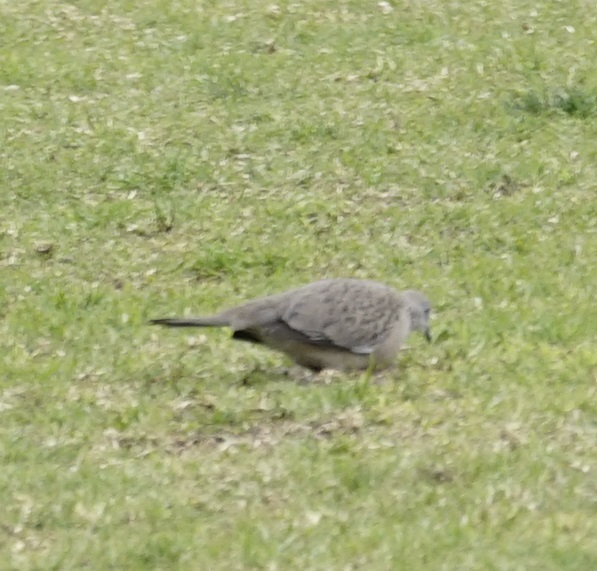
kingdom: Animalia
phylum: Chordata
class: Aves
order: Columbiformes
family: Columbidae
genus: Spilopelia
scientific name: Spilopelia chinensis
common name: Spotted dove
